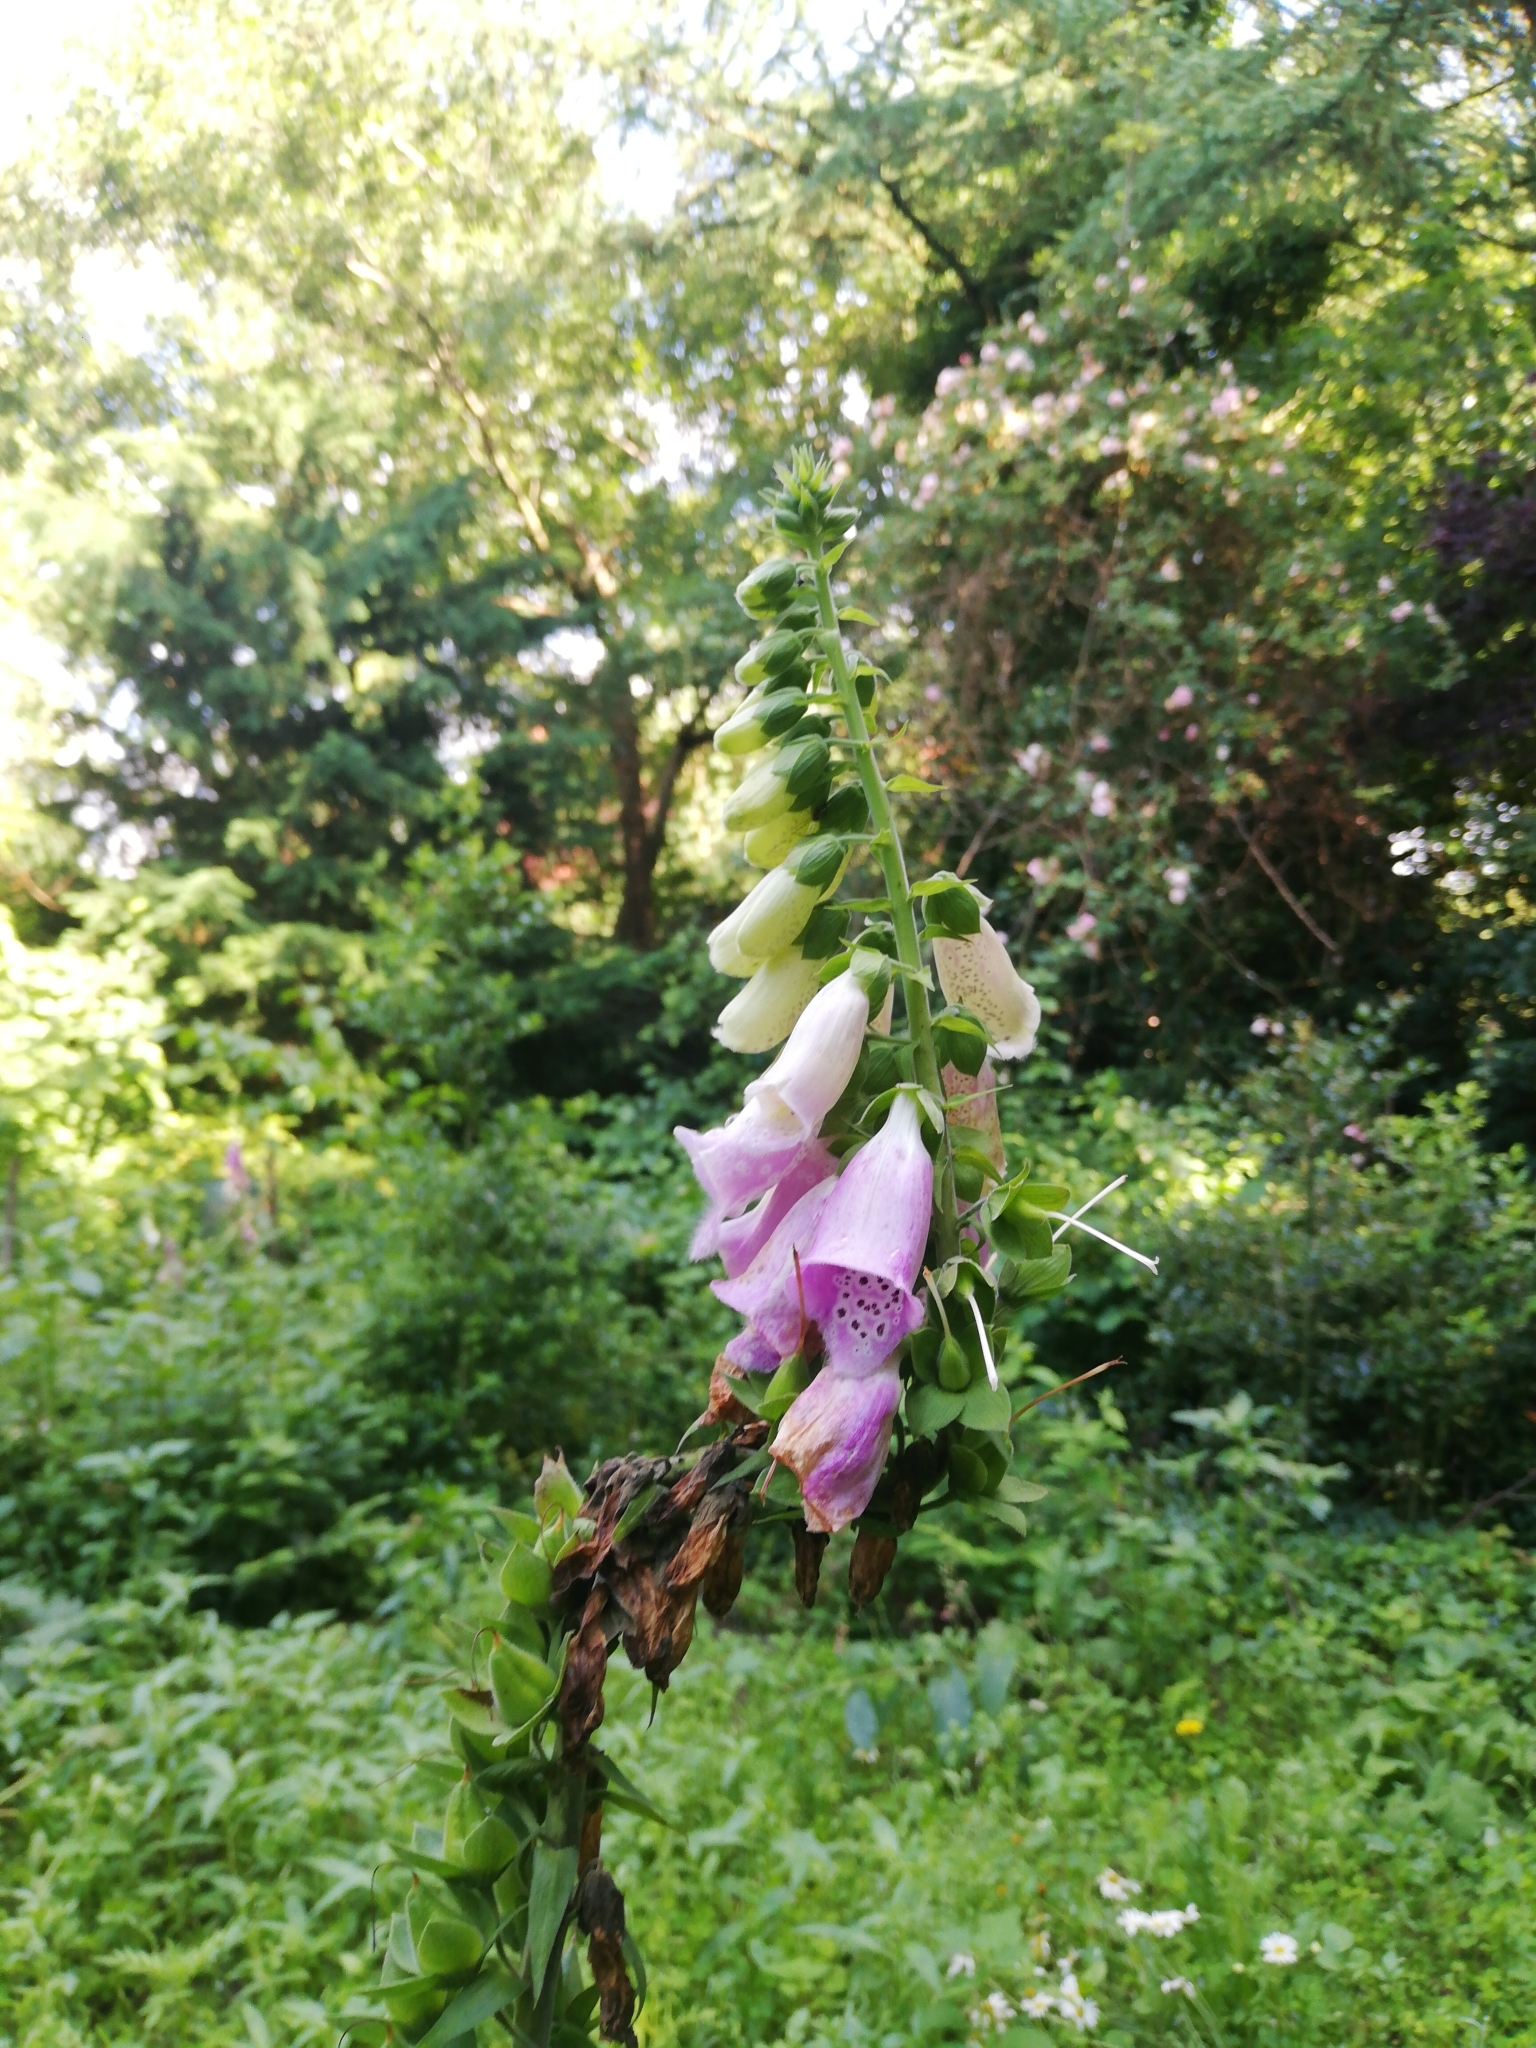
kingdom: Plantae
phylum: Tracheophyta
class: Magnoliopsida
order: Lamiales
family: Plantaginaceae
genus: Digitalis
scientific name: Digitalis purpurea
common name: Foxglove
